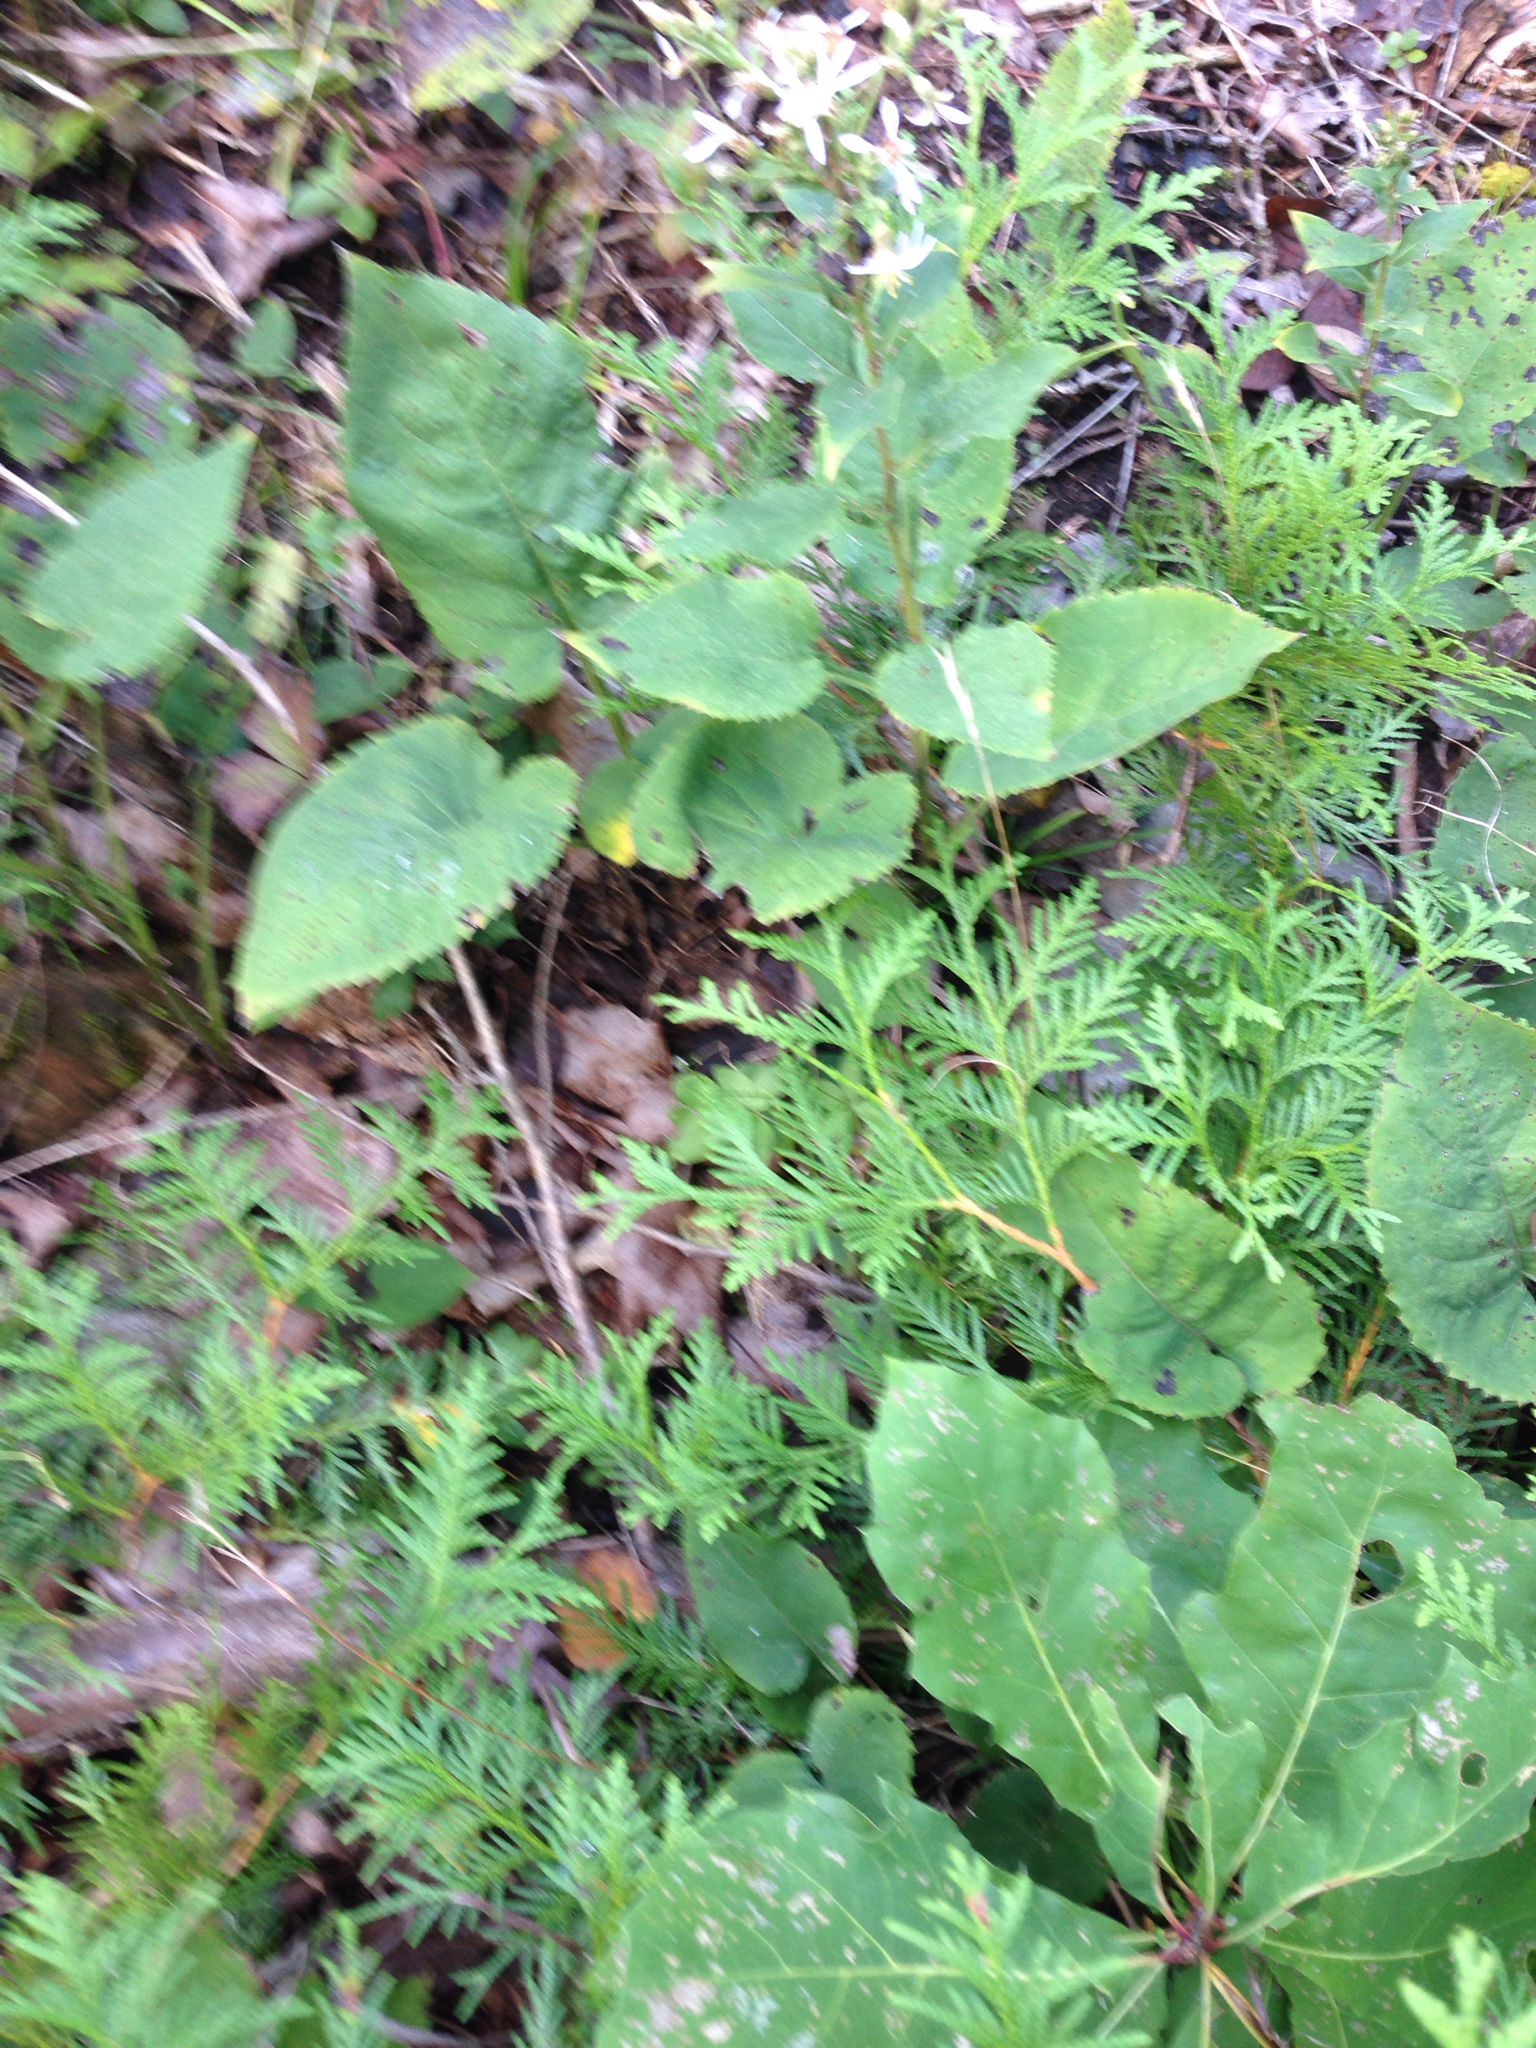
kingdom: Plantae
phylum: Tracheophyta
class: Magnoliopsida
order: Asterales
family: Asteraceae
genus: Eurybia
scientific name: Eurybia macrophylla
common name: Big-leaved aster
